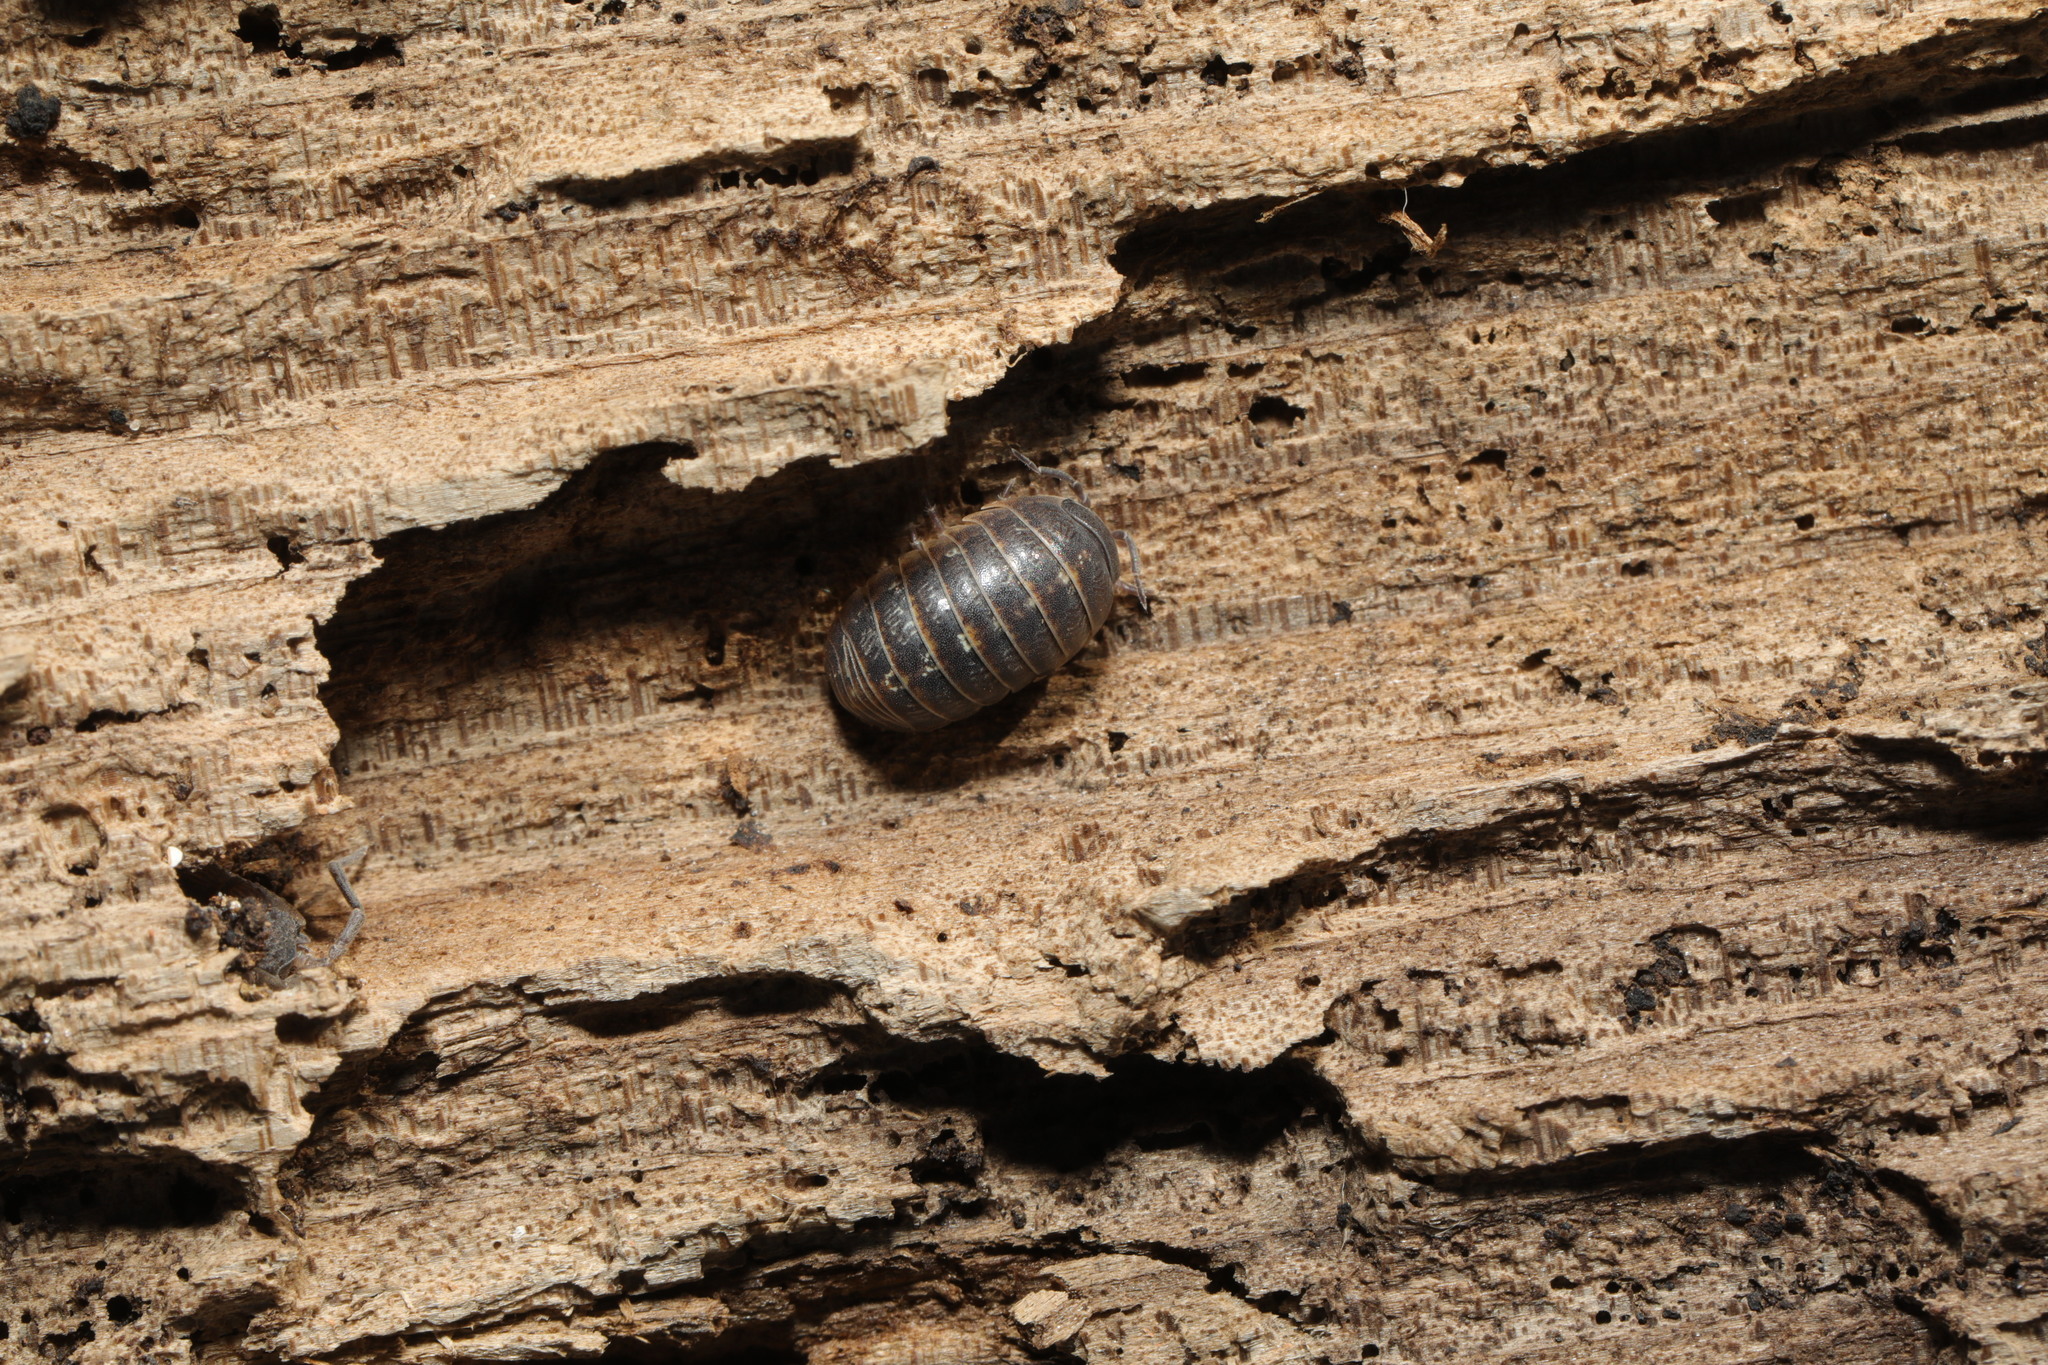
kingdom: Animalia
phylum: Arthropoda
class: Malacostraca
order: Isopoda
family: Armadillidiidae
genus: Armadillidium
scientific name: Armadillidium vulgare
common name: Common pill woodlouse
